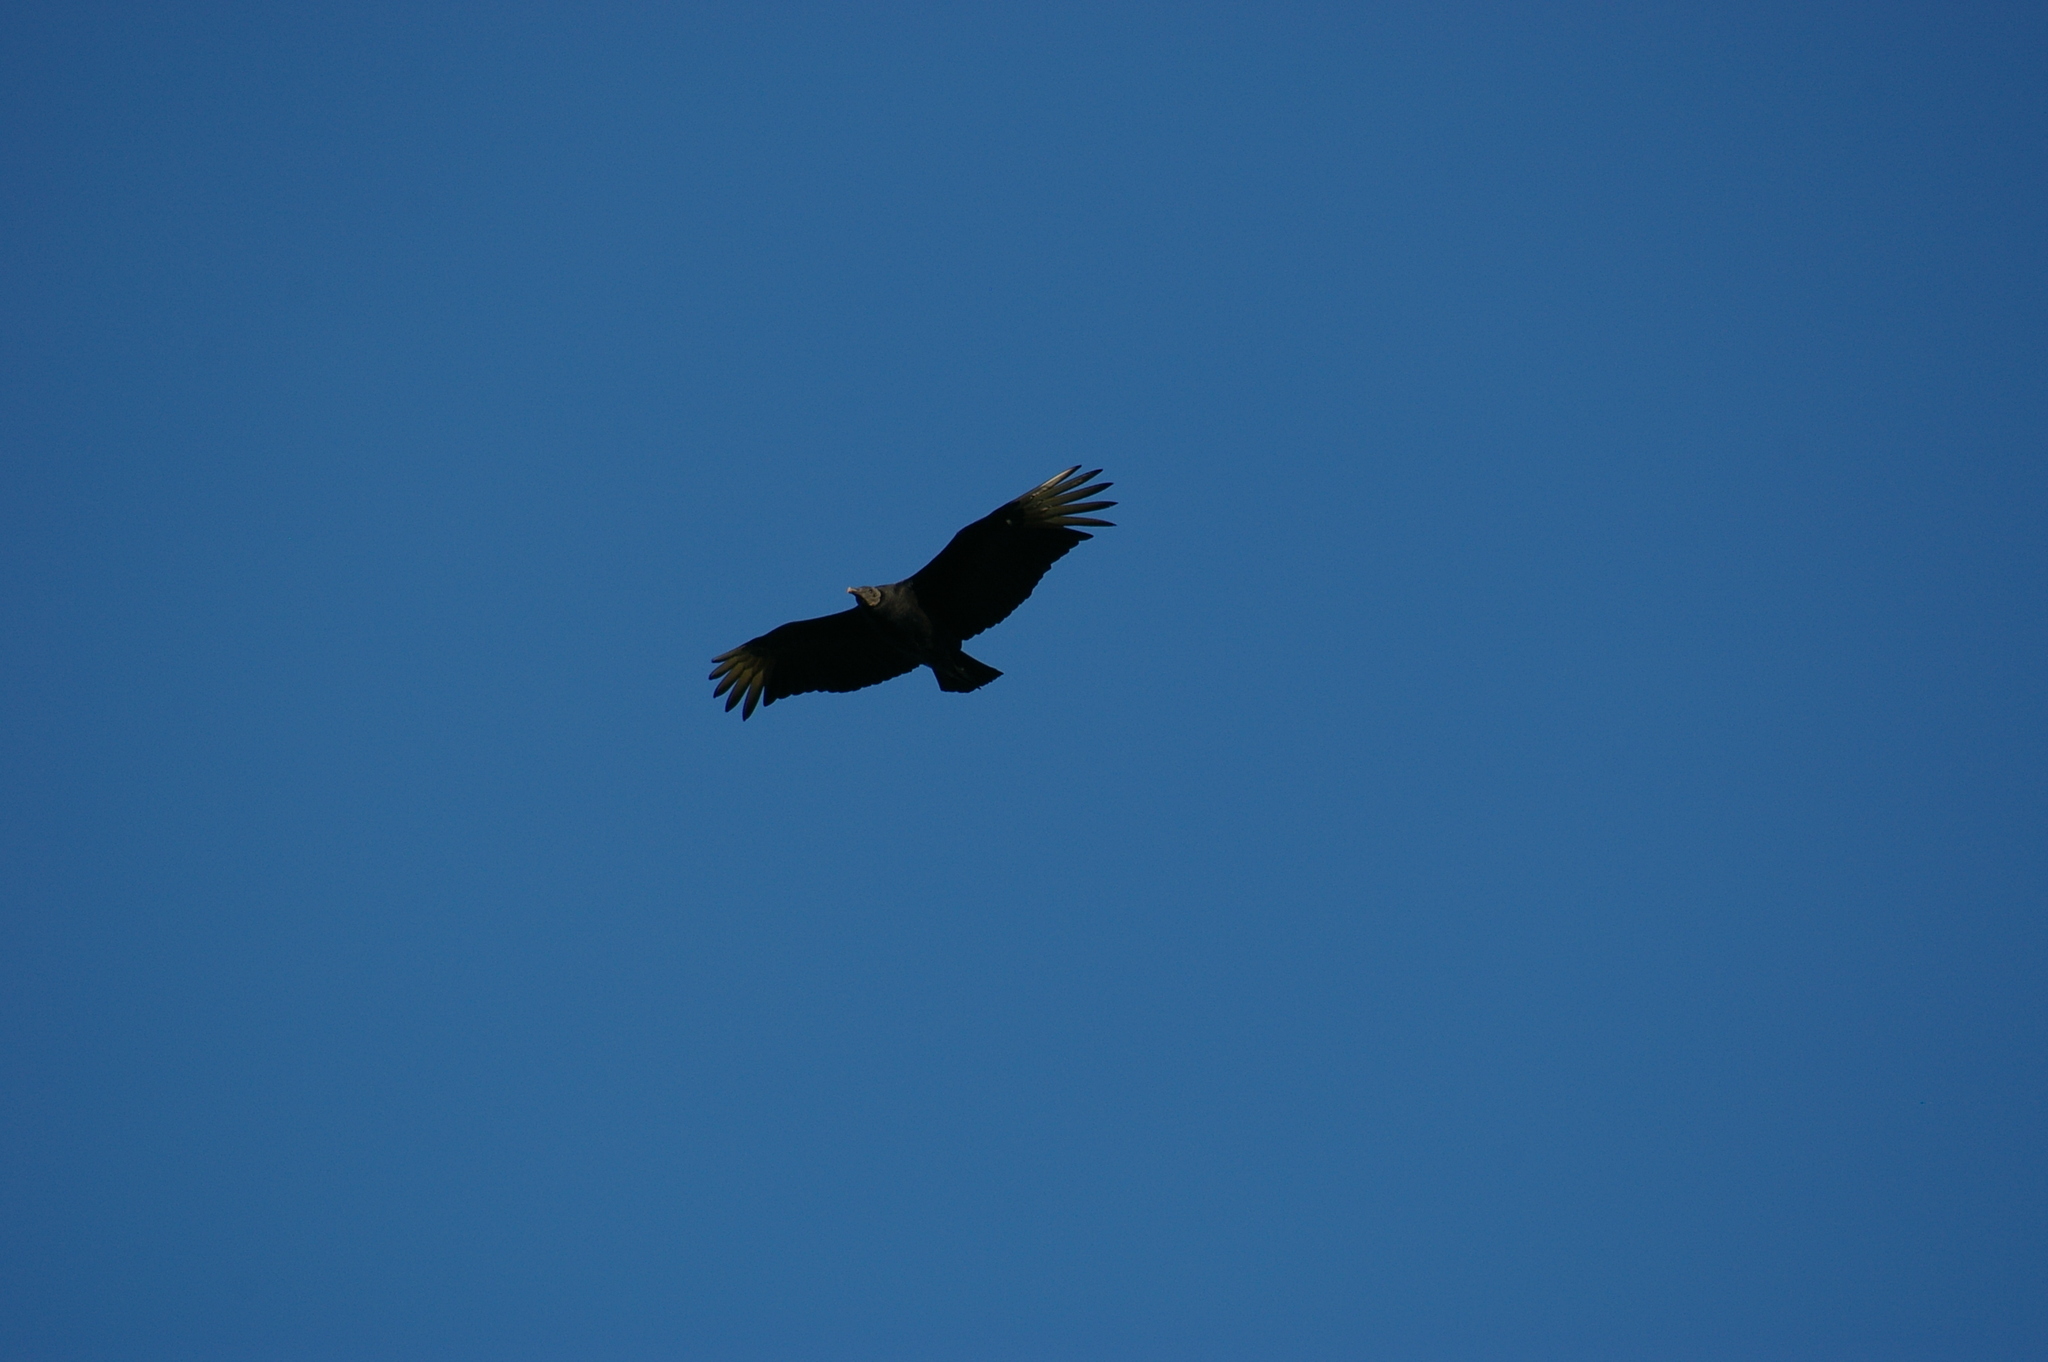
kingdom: Animalia
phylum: Chordata
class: Aves
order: Accipitriformes
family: Cathartidae
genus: Coragyps
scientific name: Coragyps atratus
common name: Black vulture
